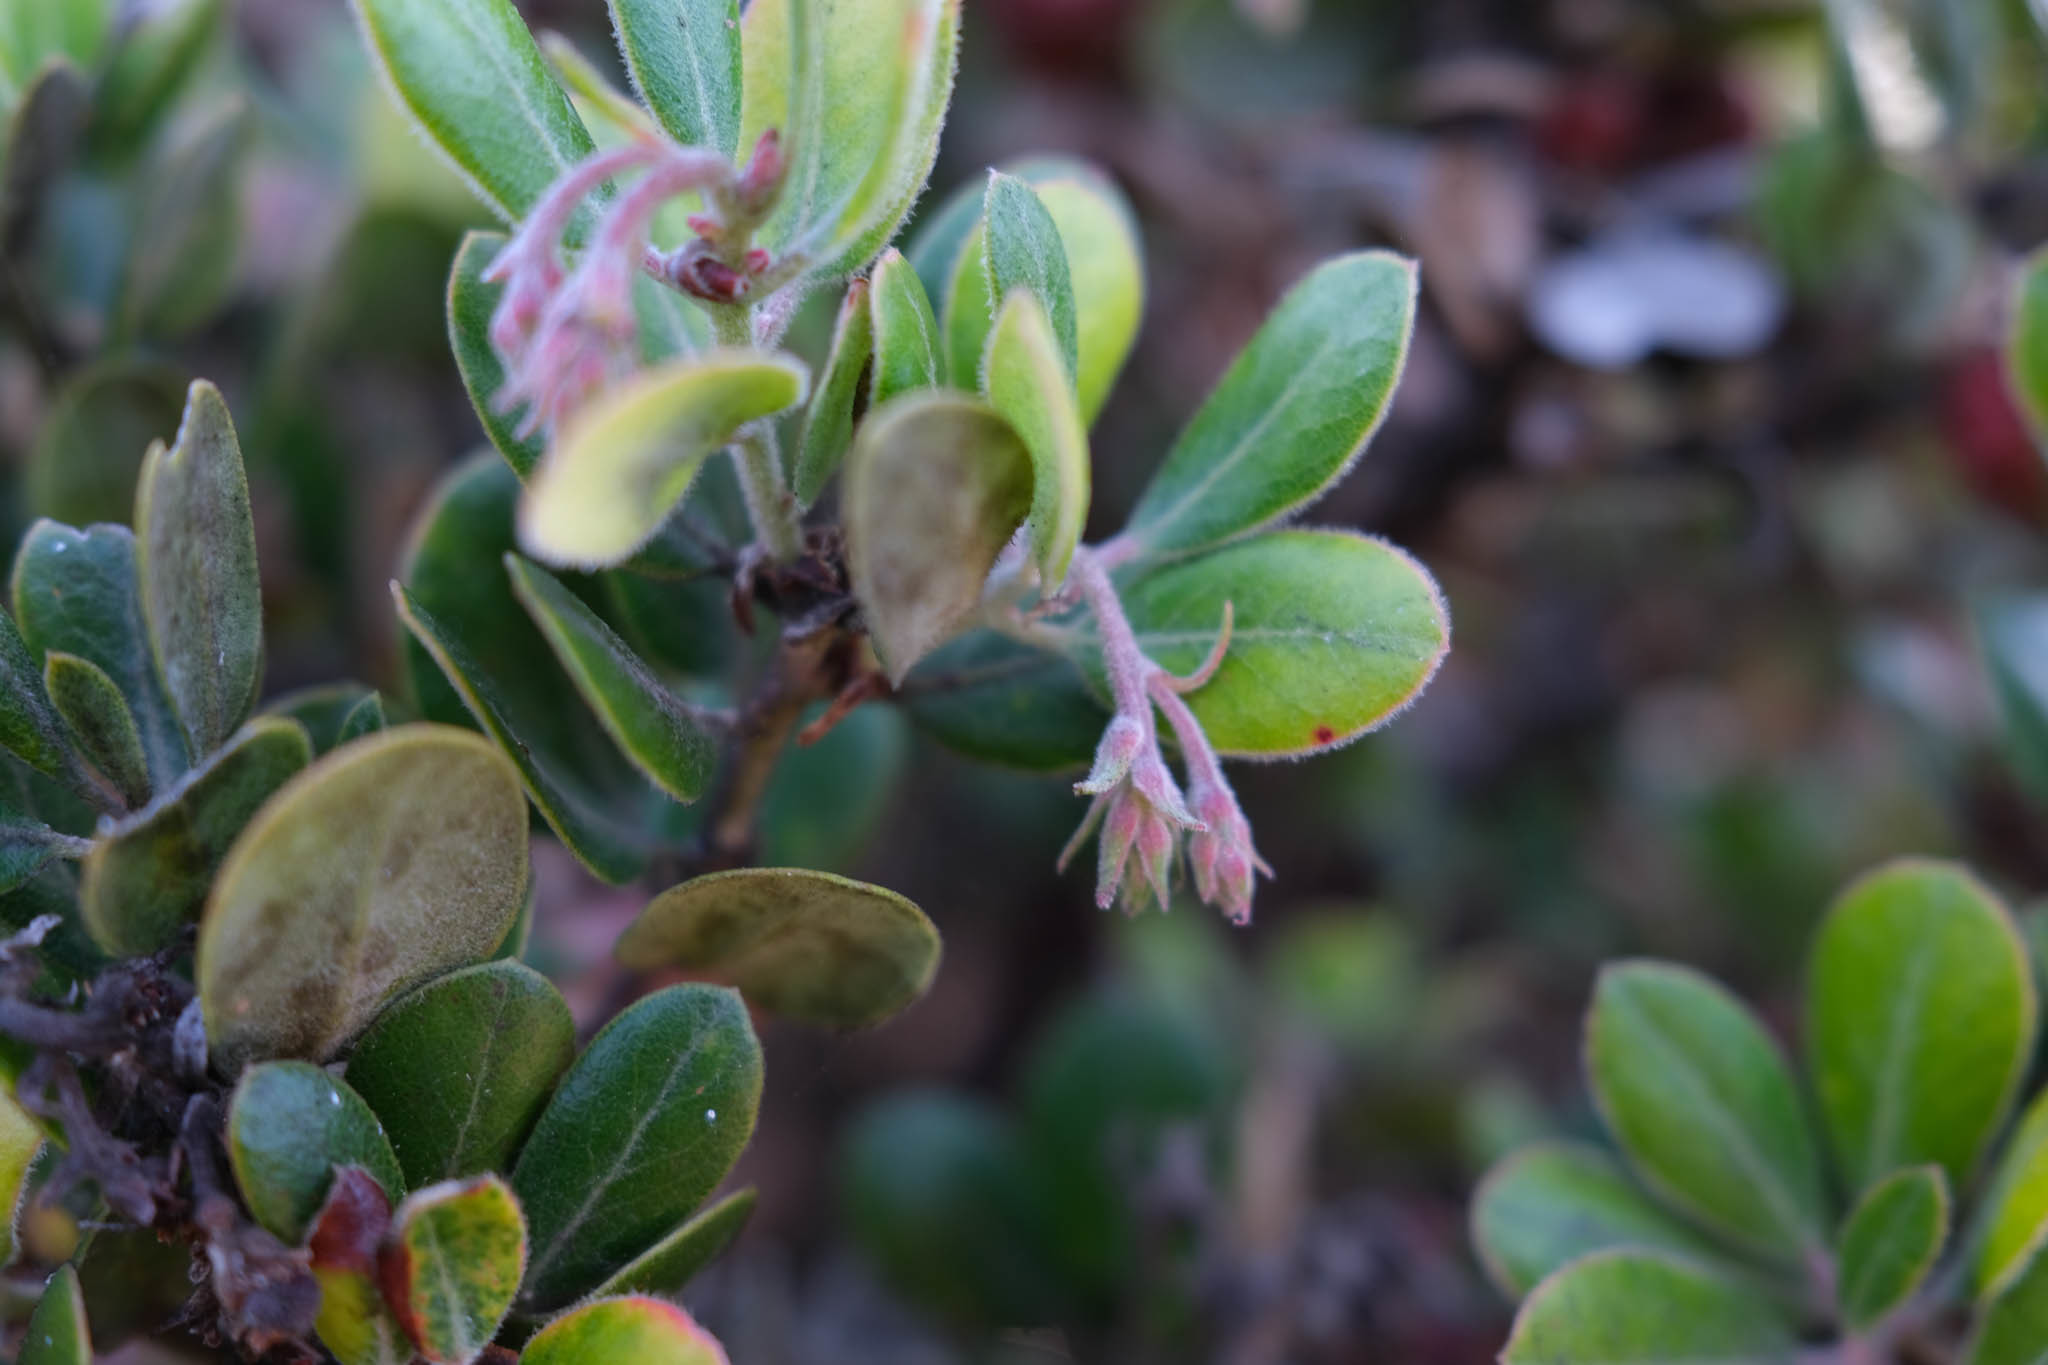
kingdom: Plantae
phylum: Tracheophyta
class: Magnoliopsida
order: Ericales
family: Ericaceae
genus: Arctostaphylos
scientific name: Arctostaphylos tomentosa
